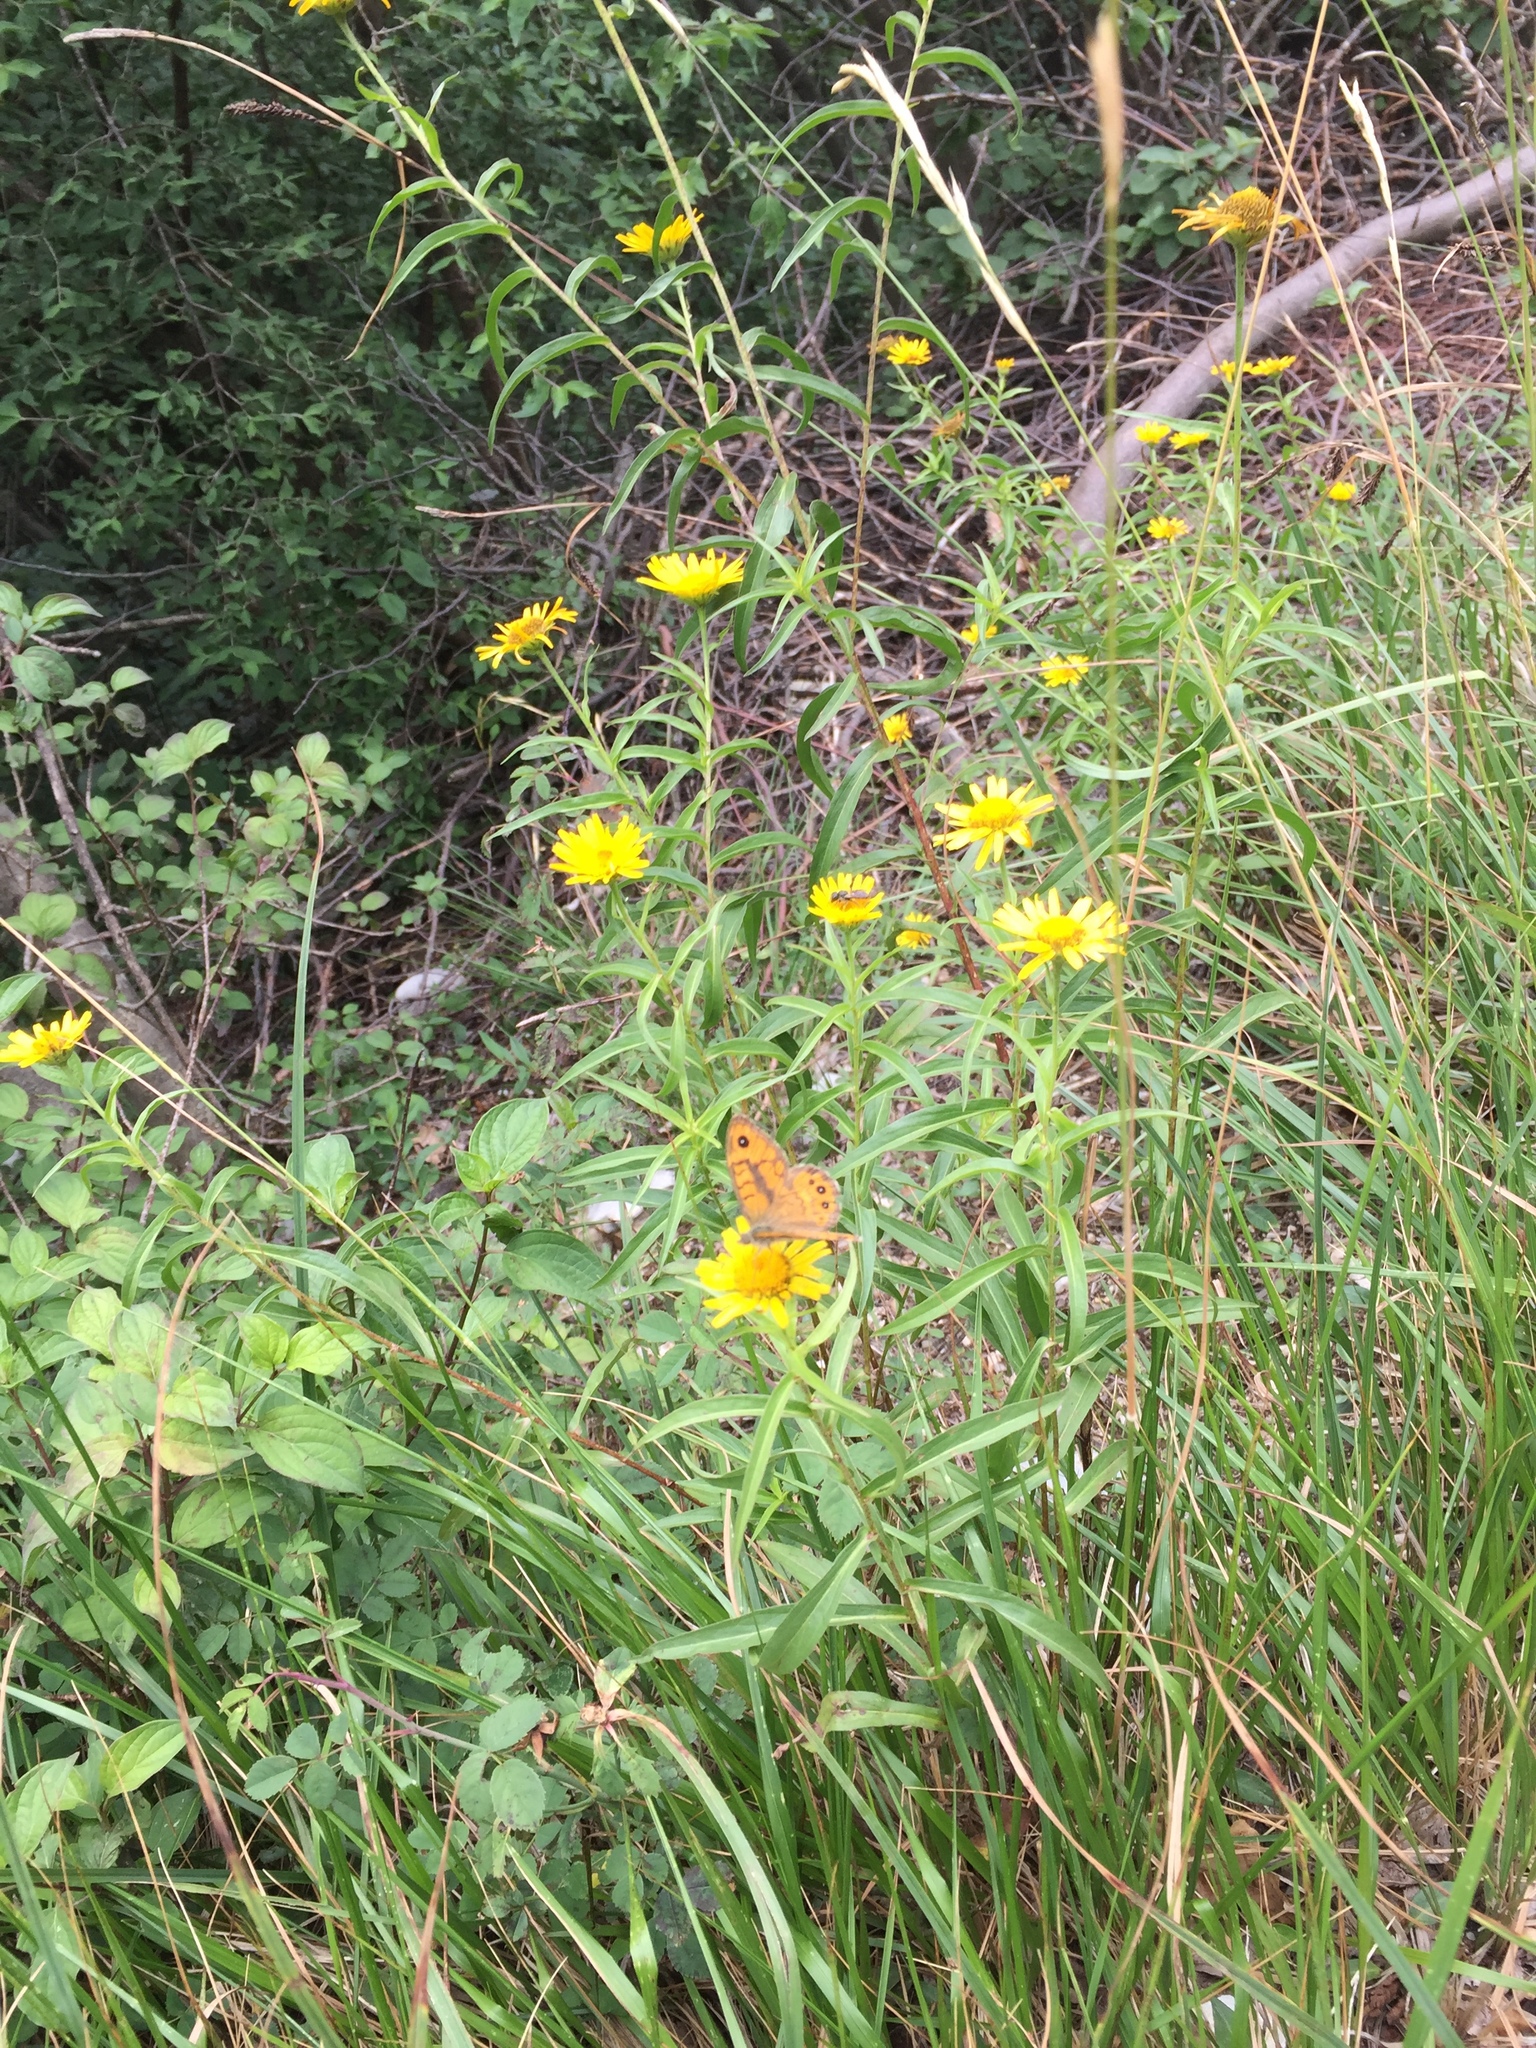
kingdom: Animalia
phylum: Arthropoda
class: Insecta
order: Lepidoptera
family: Nymphalidae
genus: Pararge
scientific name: Pararge Lasiommata megera
